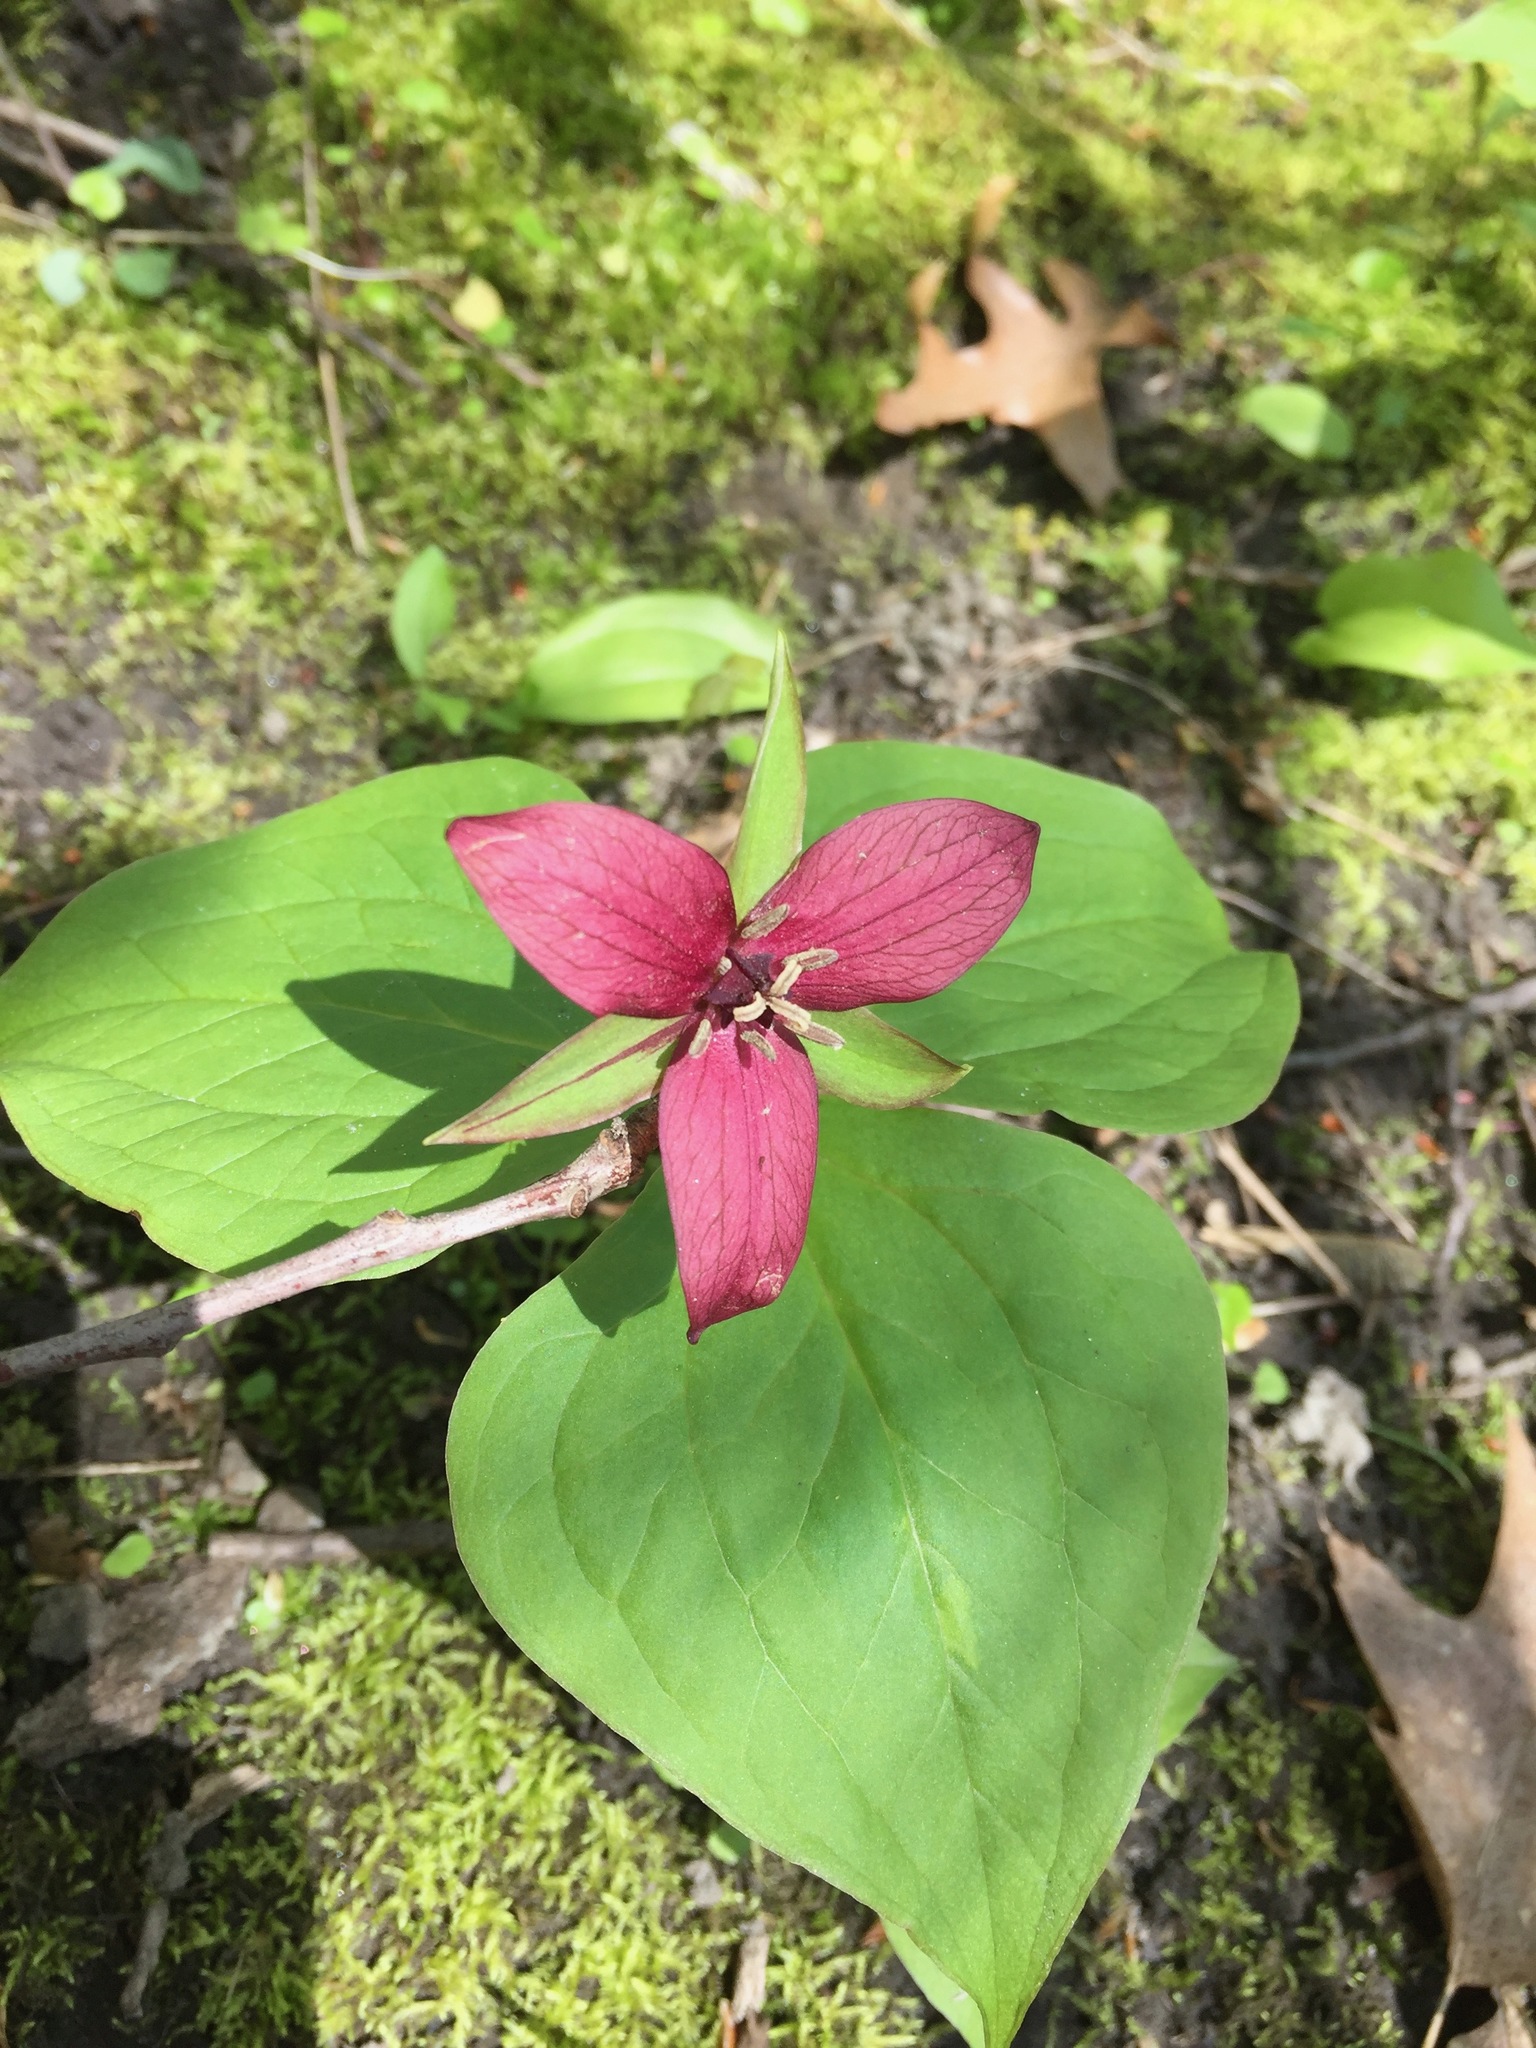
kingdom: Plantae
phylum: Tracheophyta
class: Liliopsida
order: Liliales
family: Melanthiaceae
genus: Trillium
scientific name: Trillium erectum
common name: Purple trillium
